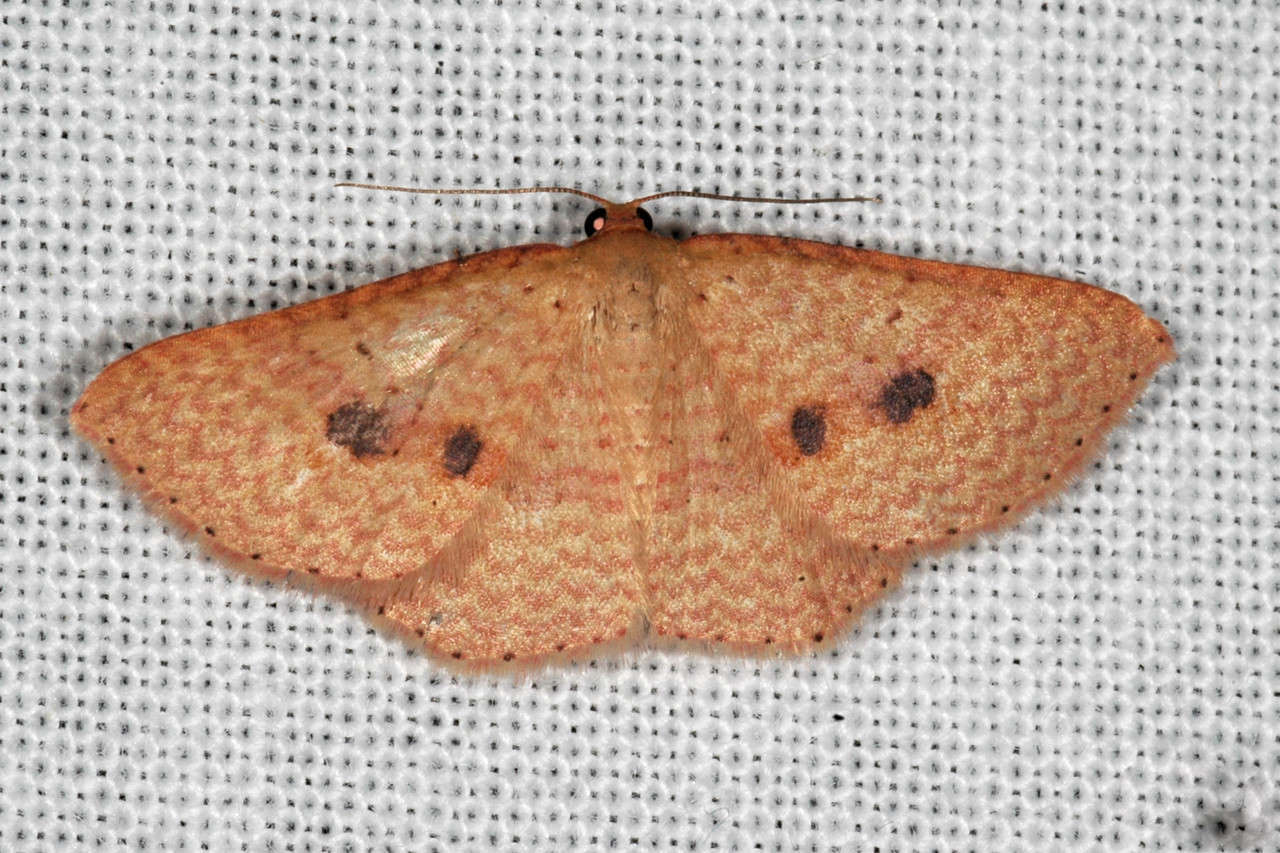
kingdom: Animalia
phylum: Arthropoda
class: Insecta
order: Lepidoptera
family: Geometridae
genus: Epicyme
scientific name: Epicyme rubropunctaria
